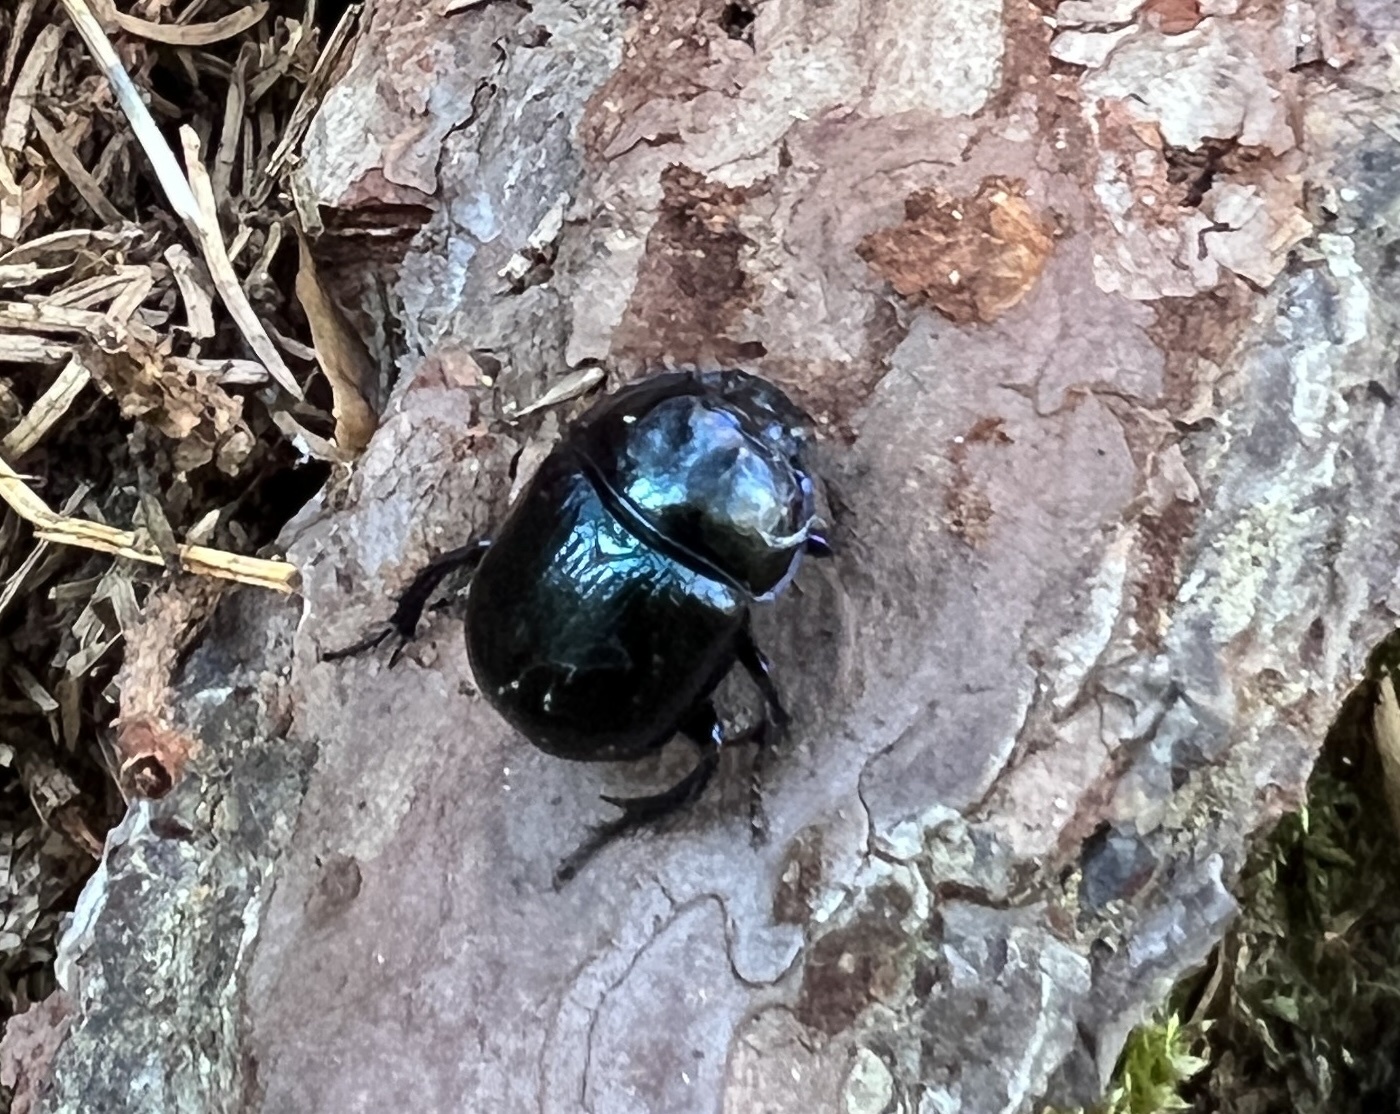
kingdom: Animalia
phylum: Arthropoda
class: Insecta
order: Coleoptera
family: Geotrupidae
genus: Anoplotrupes
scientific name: Anoplotrupes stercorosus
